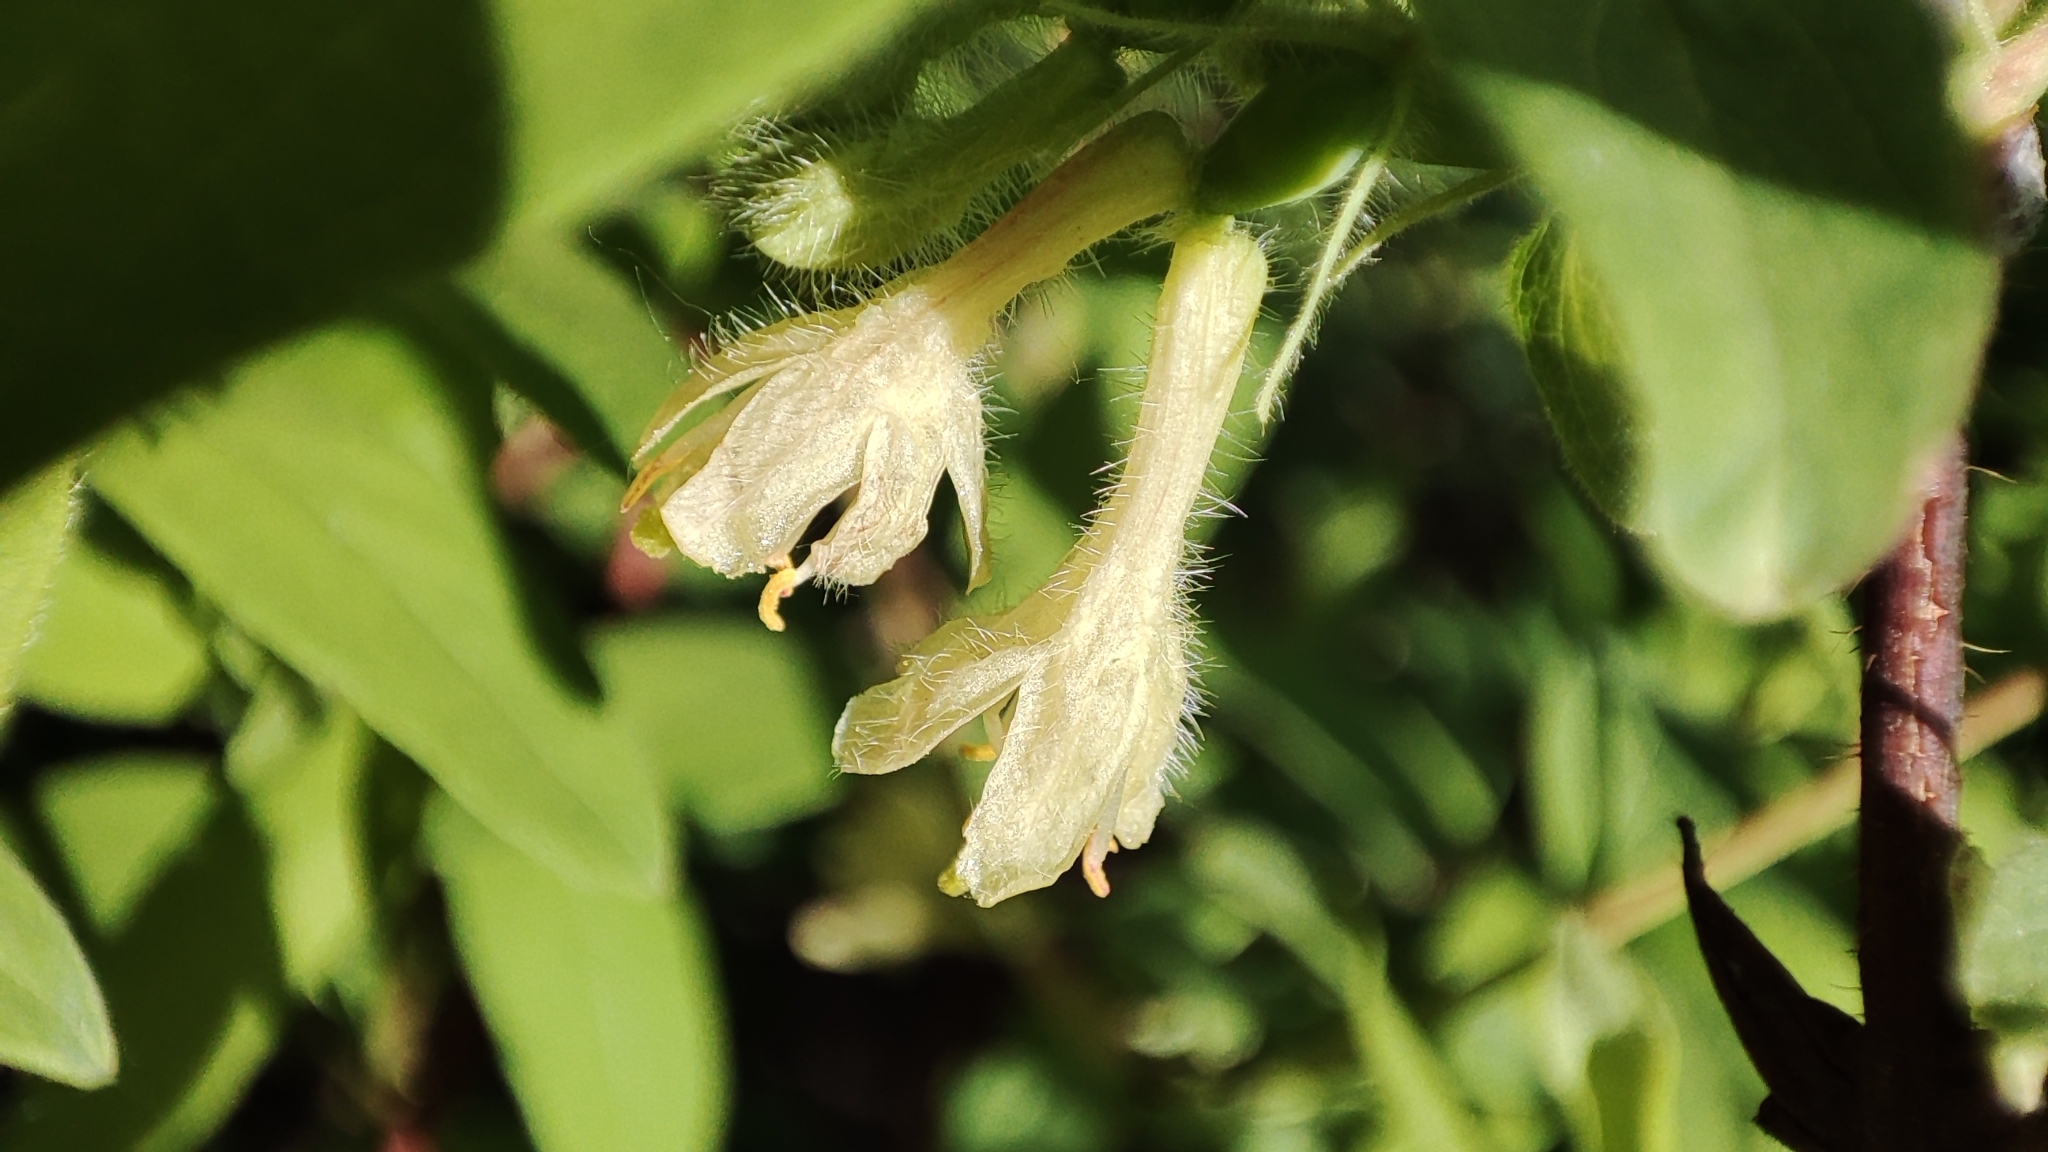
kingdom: Plantae
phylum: Tracheophyta
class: Magnoliopsida
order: Dipsacales
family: Caprifoliaceae
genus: Lonicera
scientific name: Lonicera caerulea
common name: Blue honeysuckle
